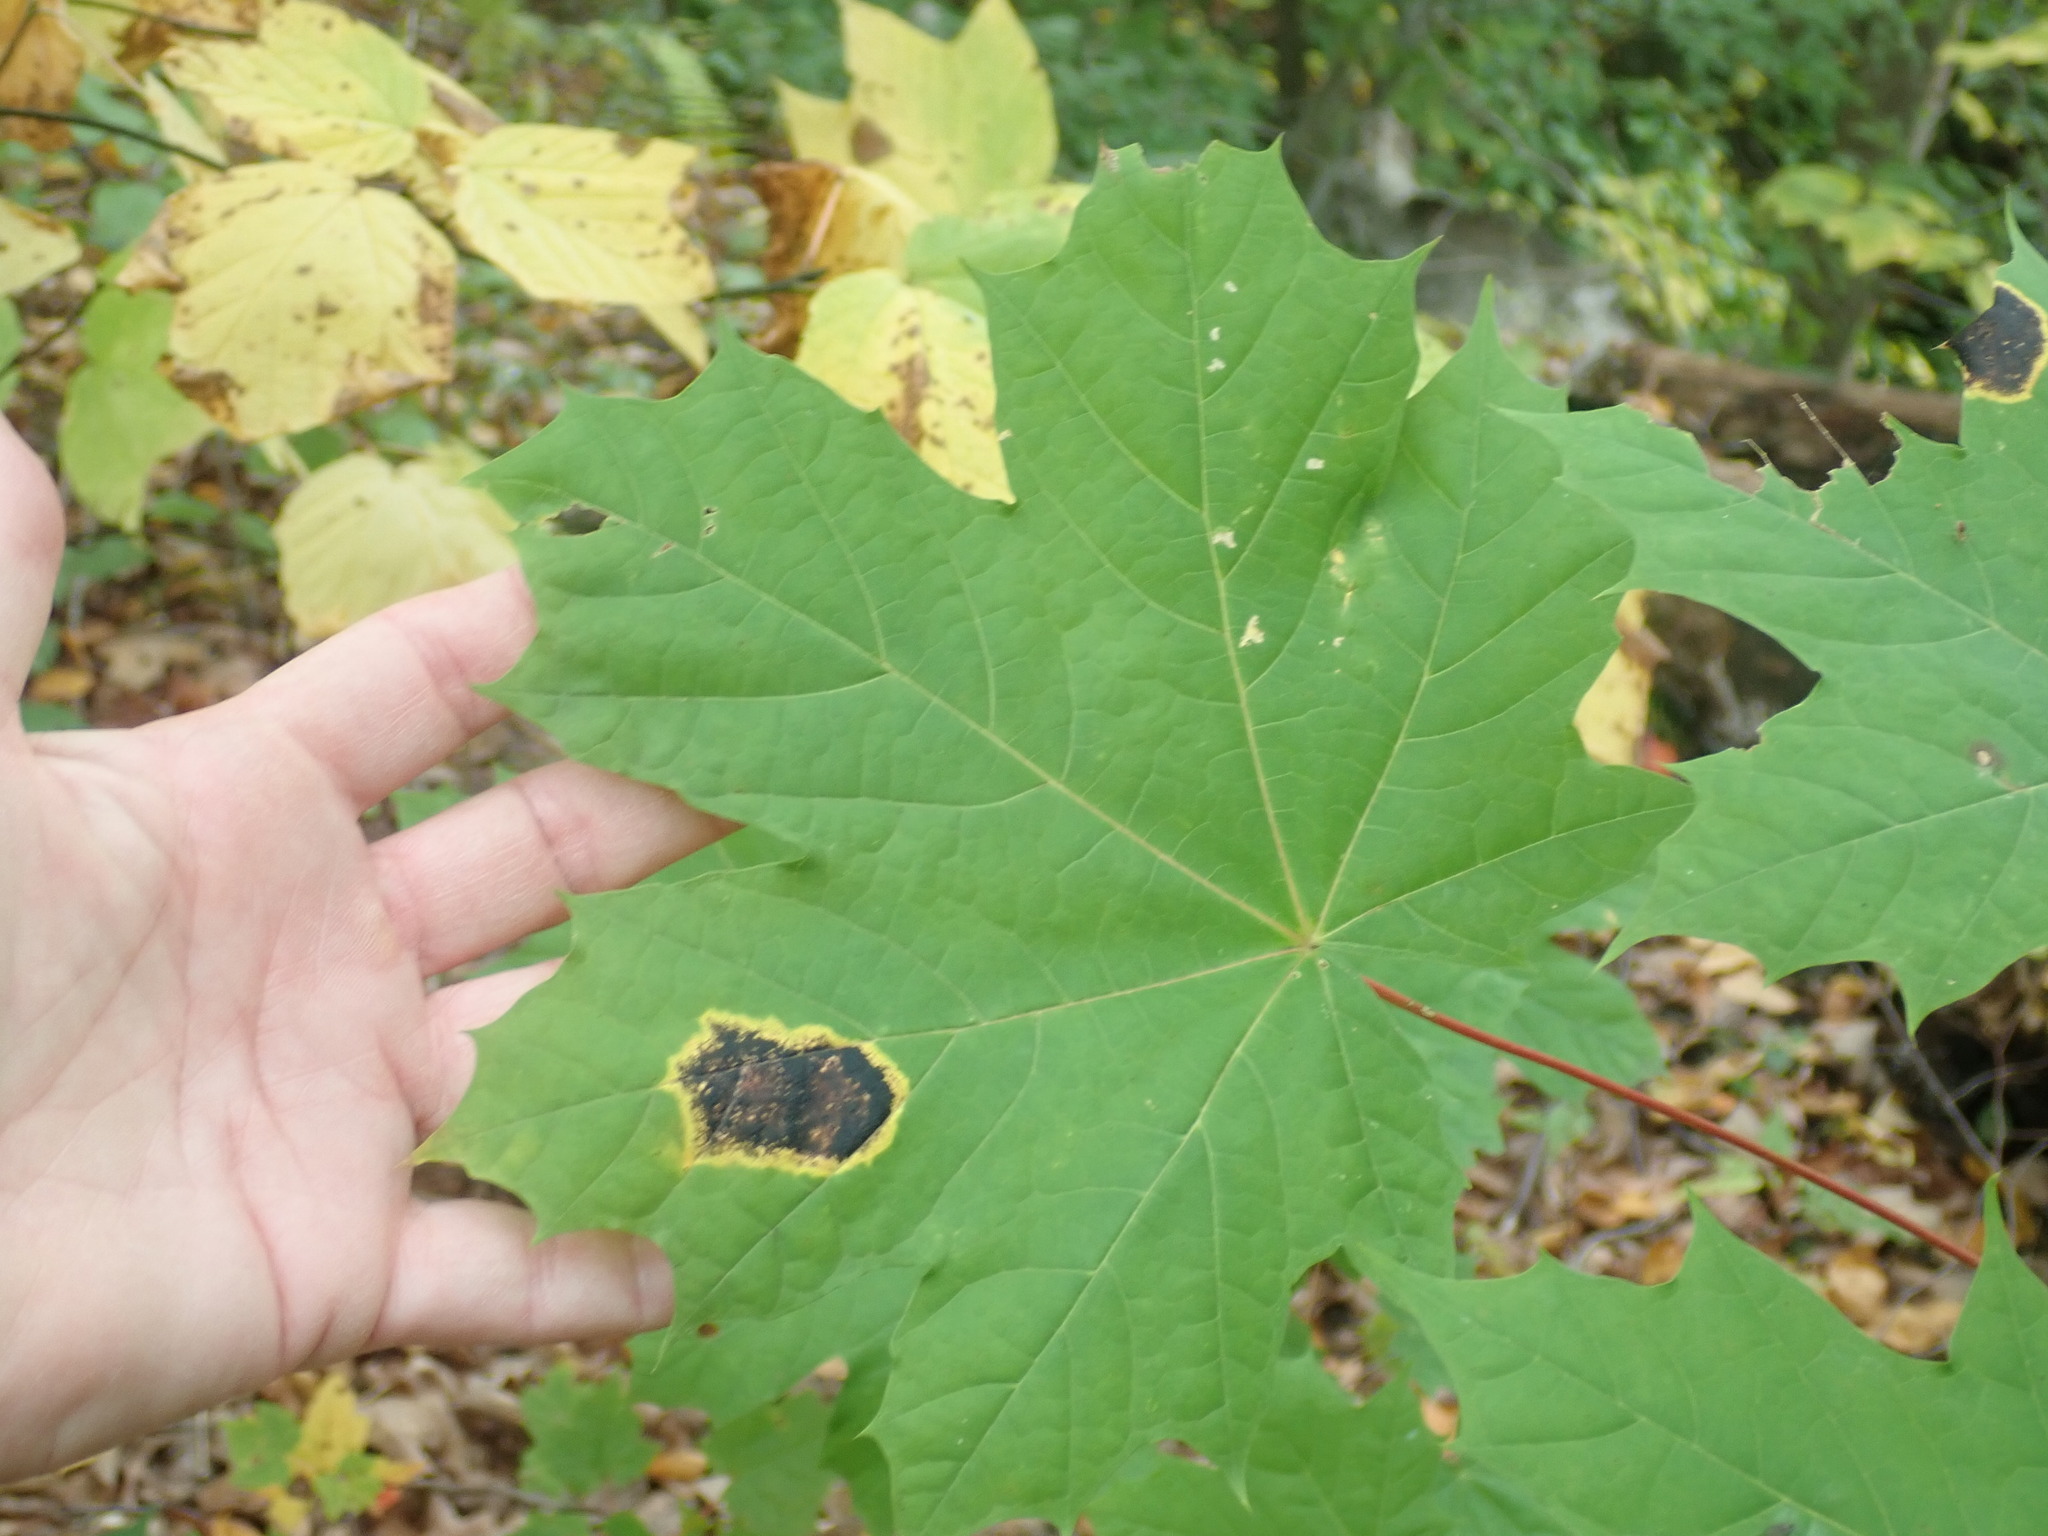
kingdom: Plantae
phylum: Tracheophyta
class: Magnoliopsida
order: Sapindales
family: Sapindaceae
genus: Acer
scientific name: Acer platanoides
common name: Norway maple
